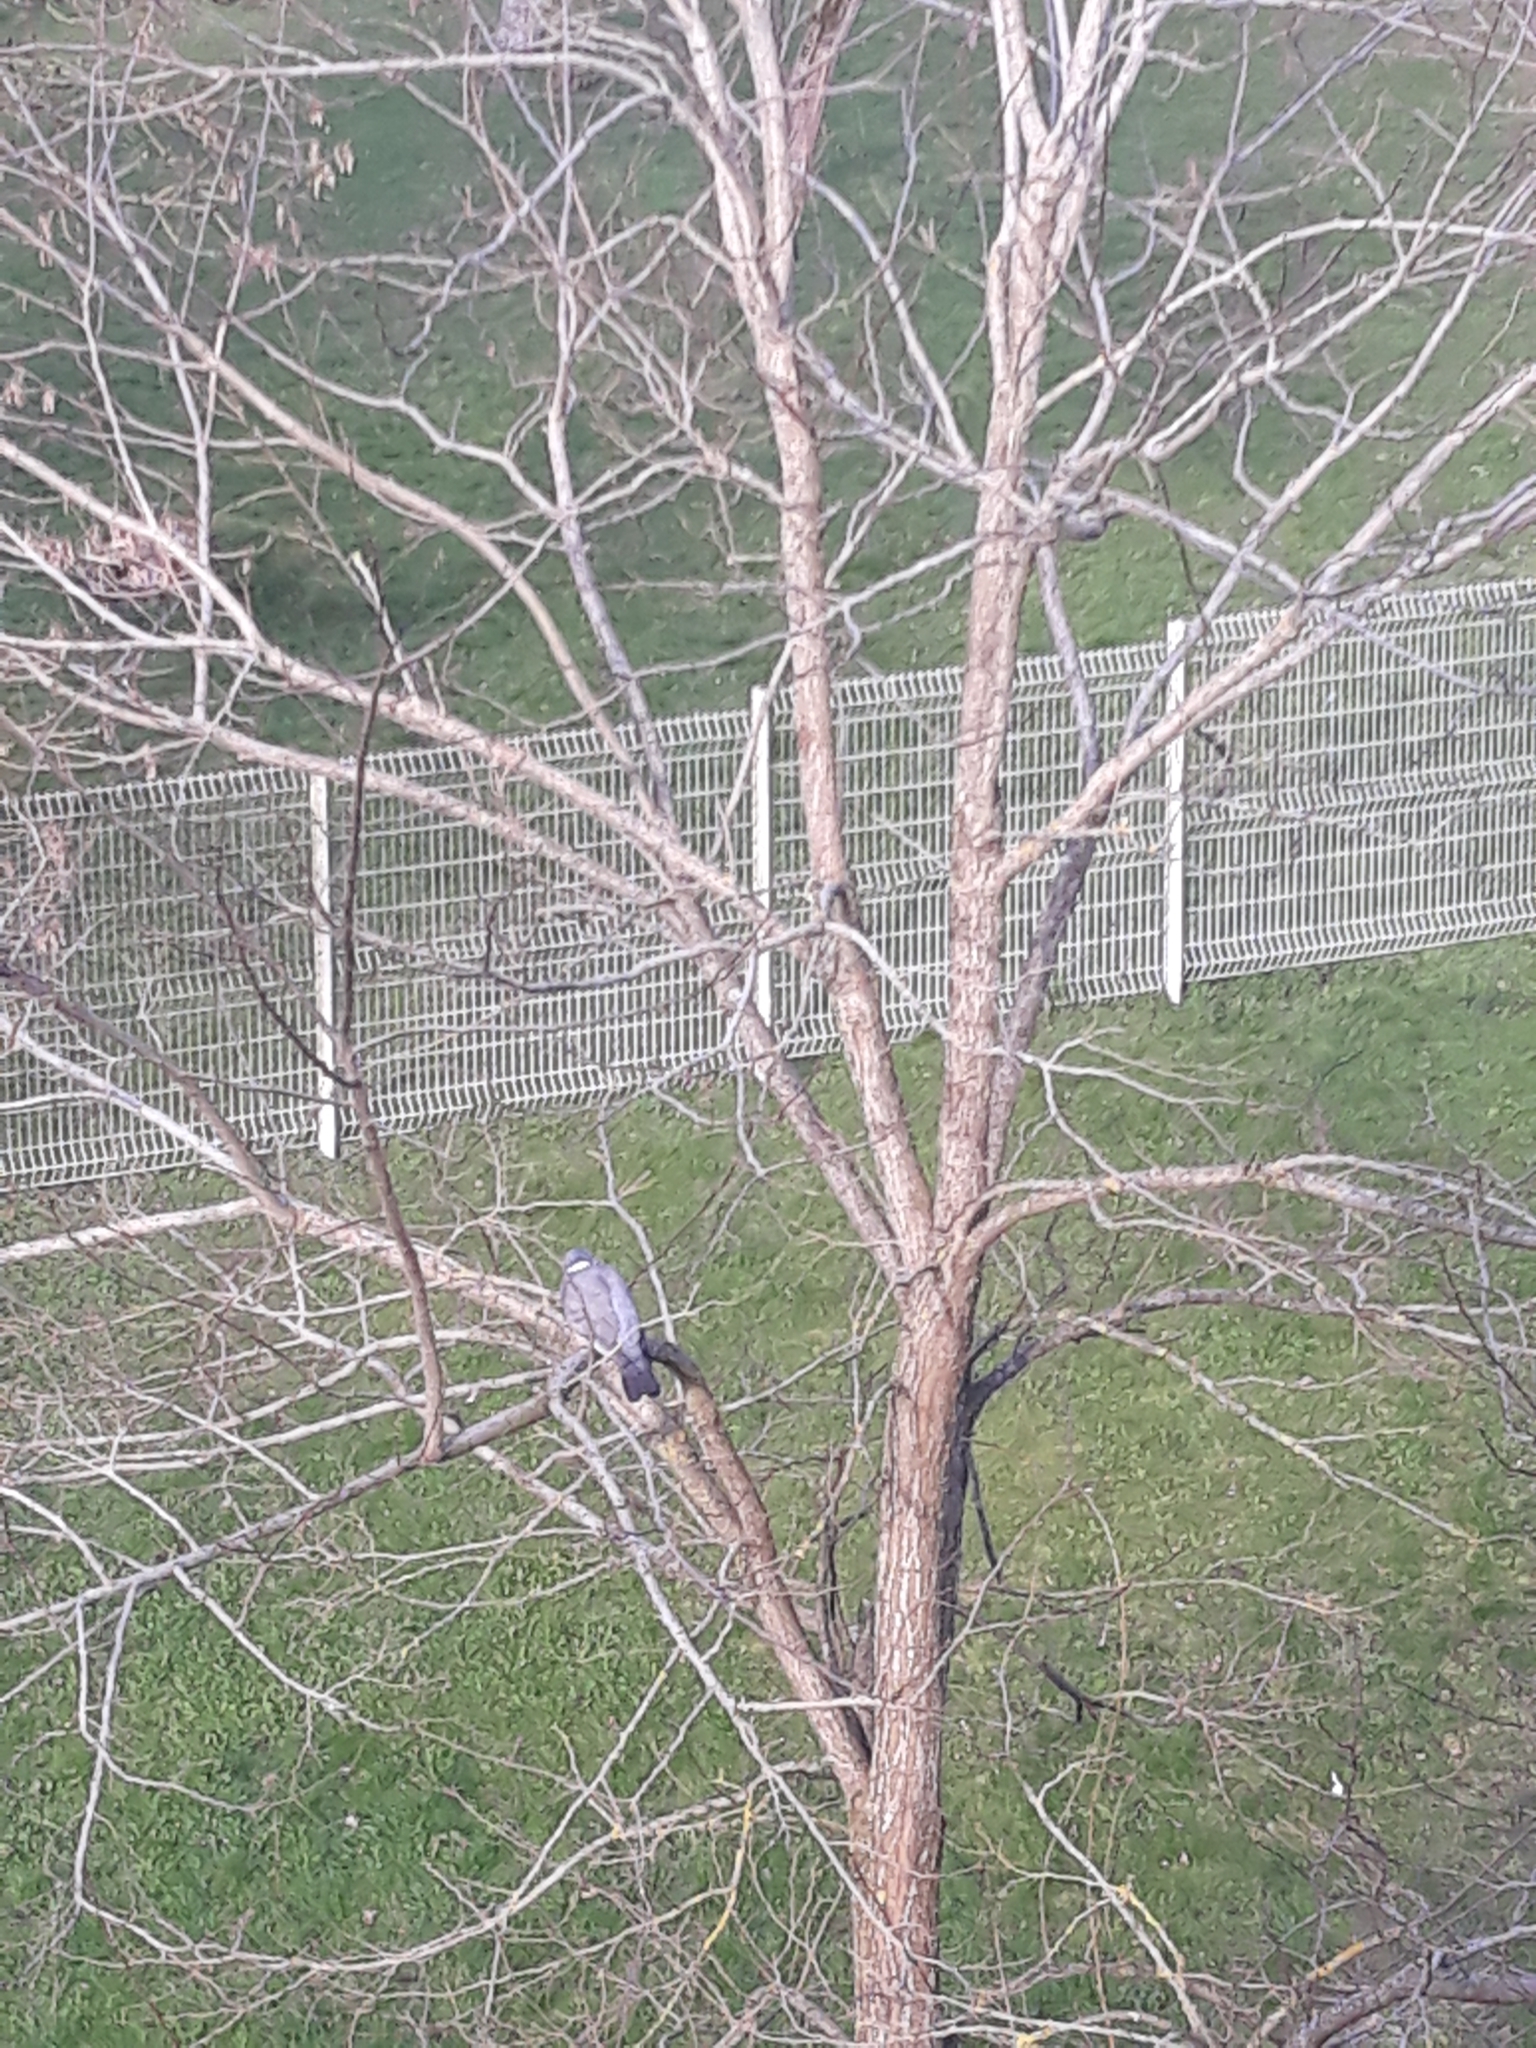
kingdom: Animalia
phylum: Chordata
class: Aves
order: Columbiformes
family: Columbidae
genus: Columba
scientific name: Columba palumbus
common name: Common wood pigeon
